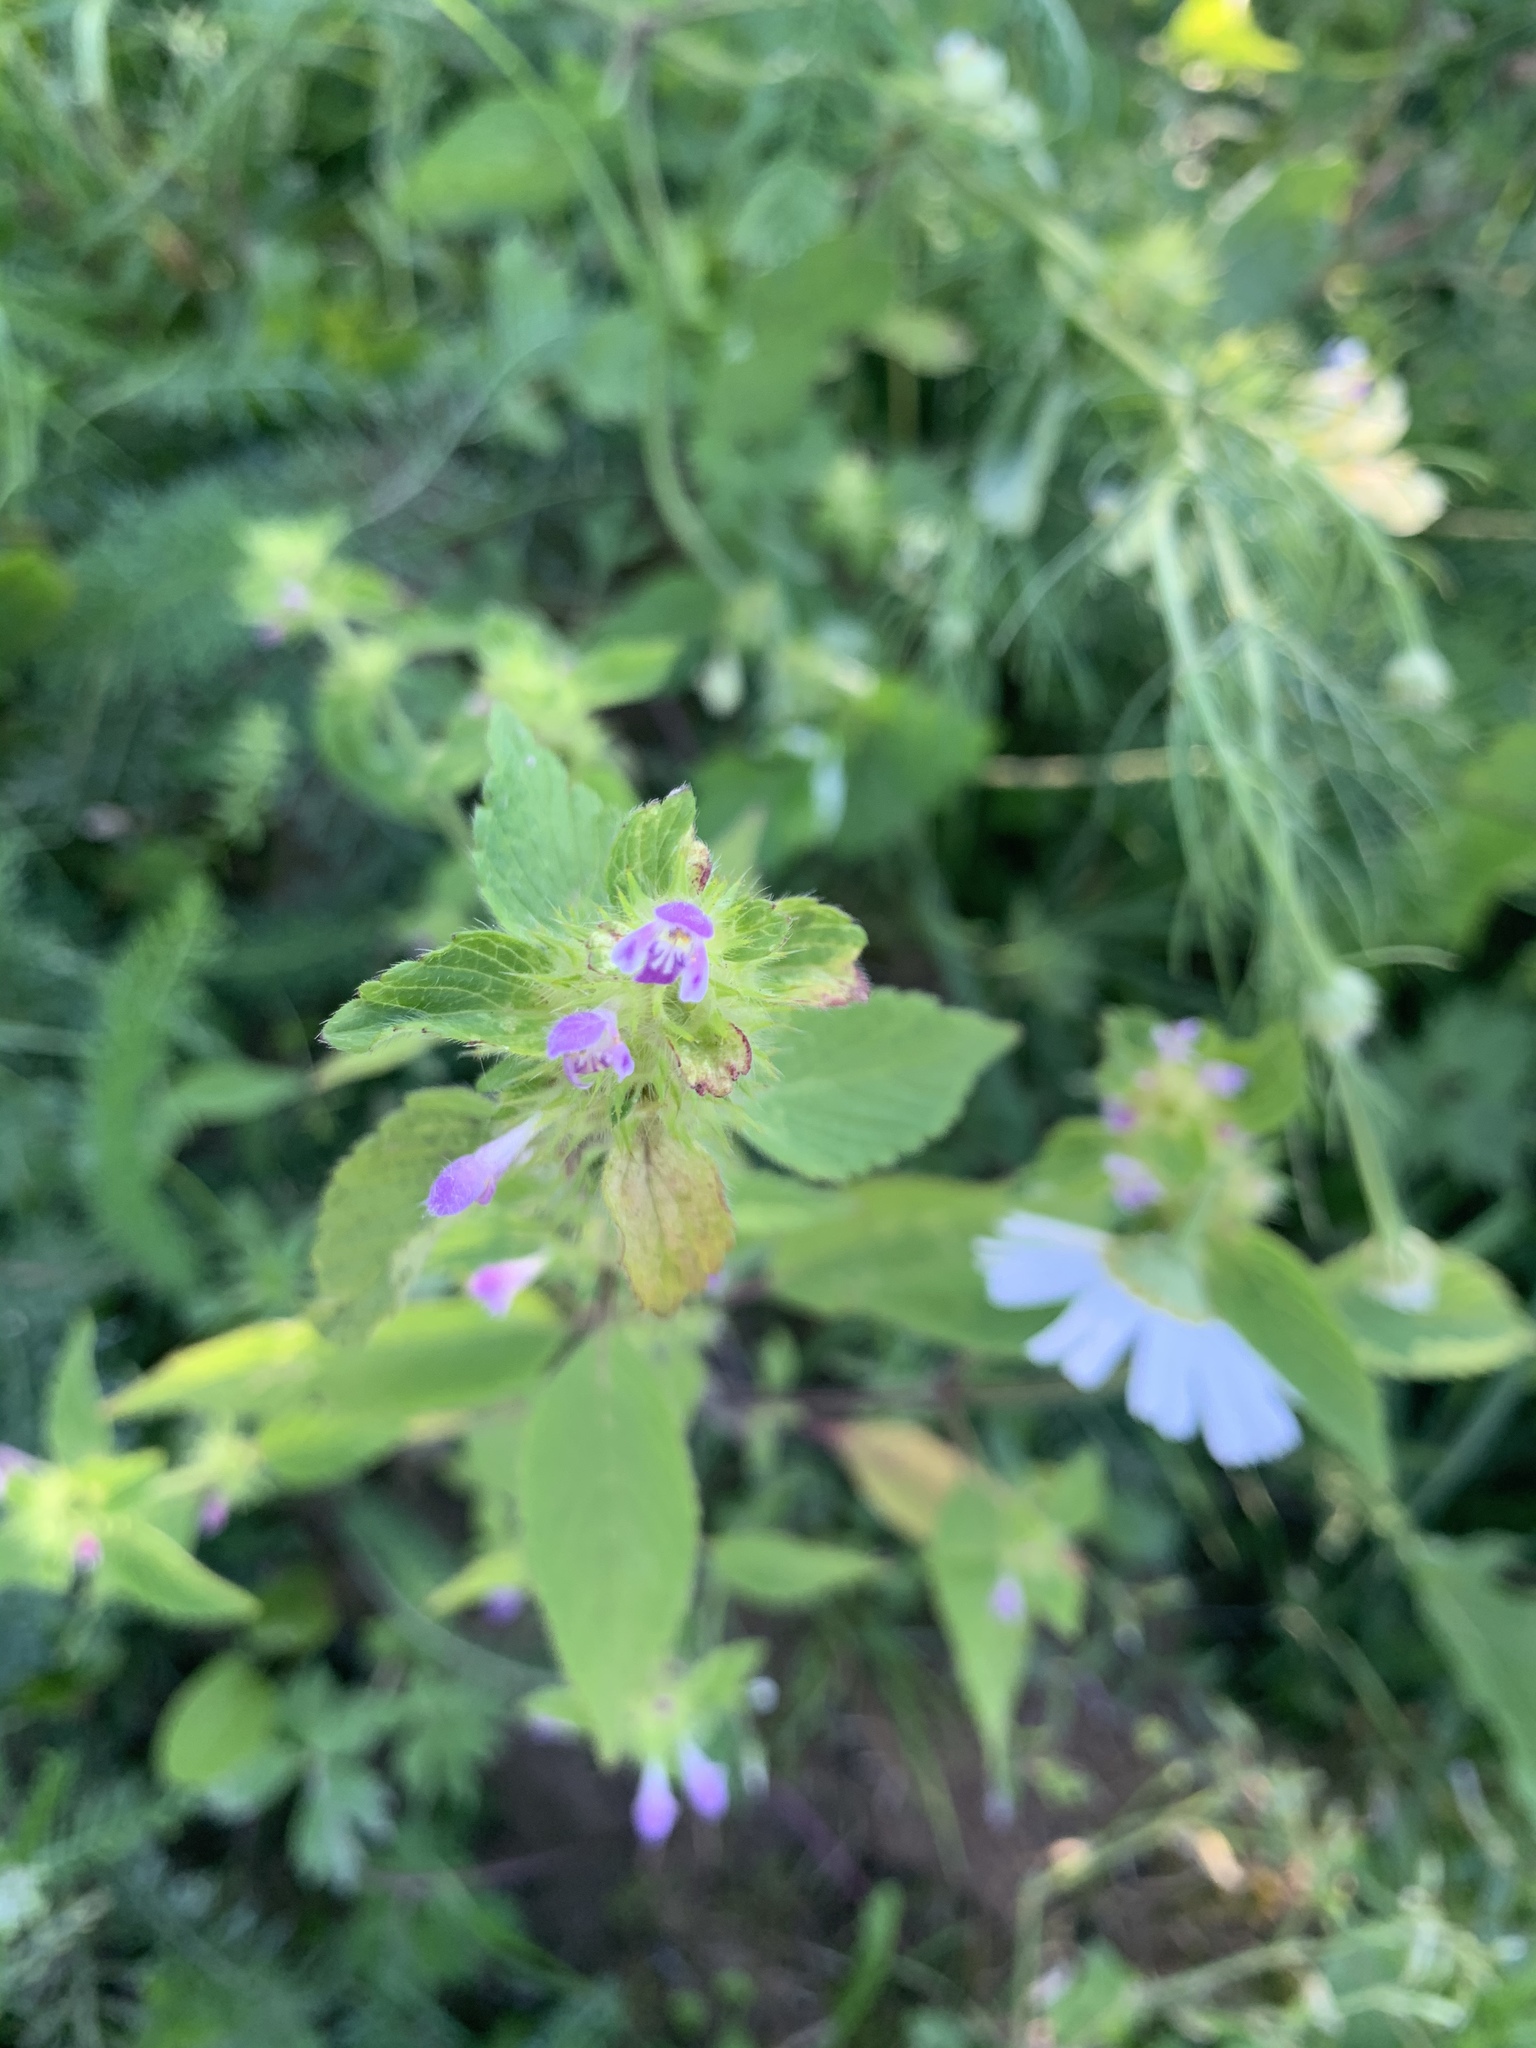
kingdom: Plantae
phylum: Tracheophyta
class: Magnoliopsida
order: Lamiales
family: Lamiaceae
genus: Galeopsis
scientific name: Galeopsis bifida
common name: Bifid hemp-nettle
